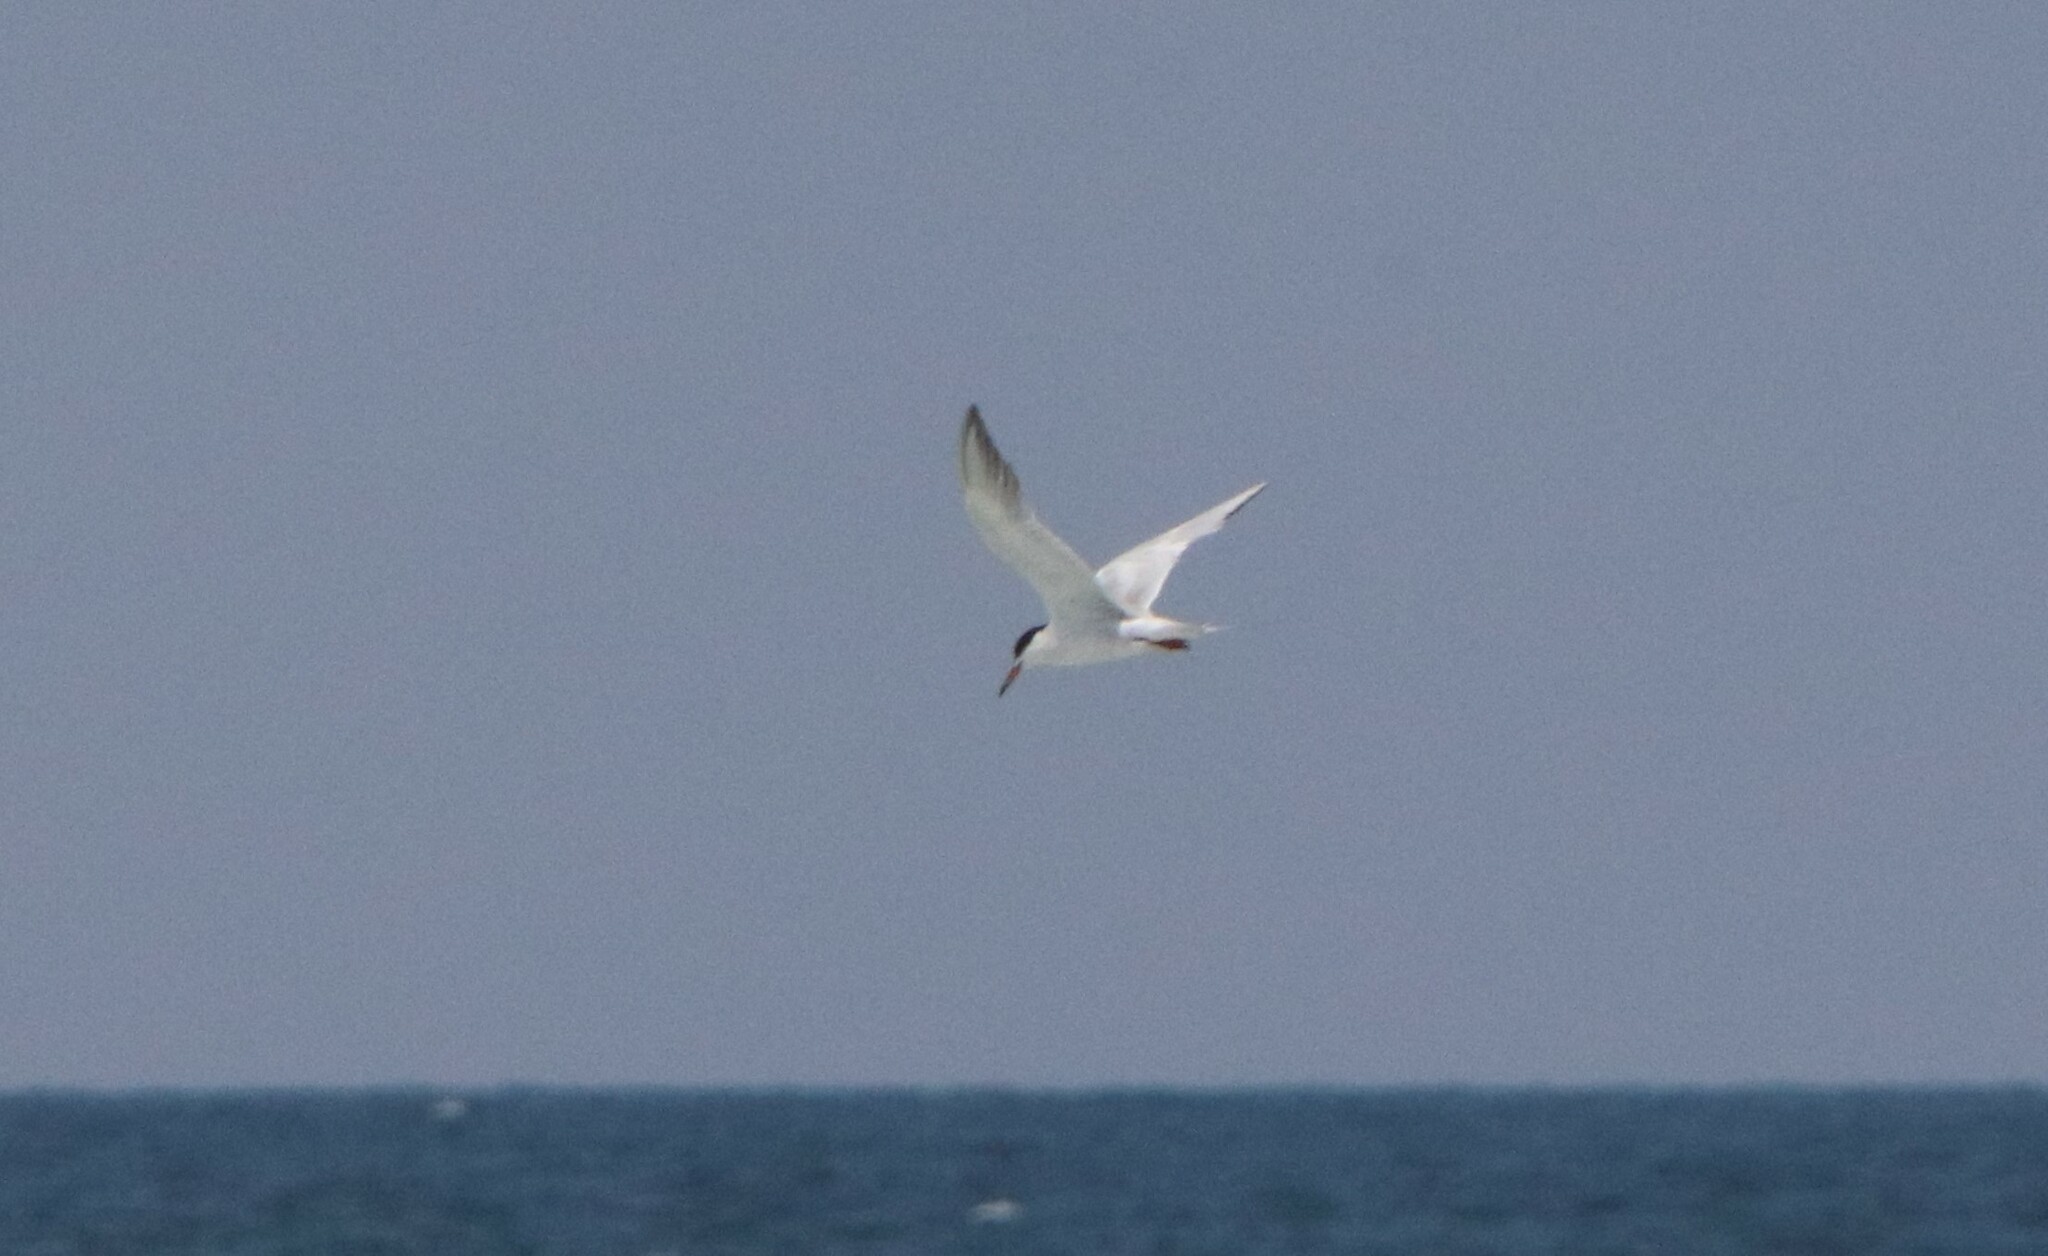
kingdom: Animalia
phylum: Chordata
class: Aves
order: Charadriiformes
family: Laridae
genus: Sterna
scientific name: Sterna forsteri
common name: Forster's tern
